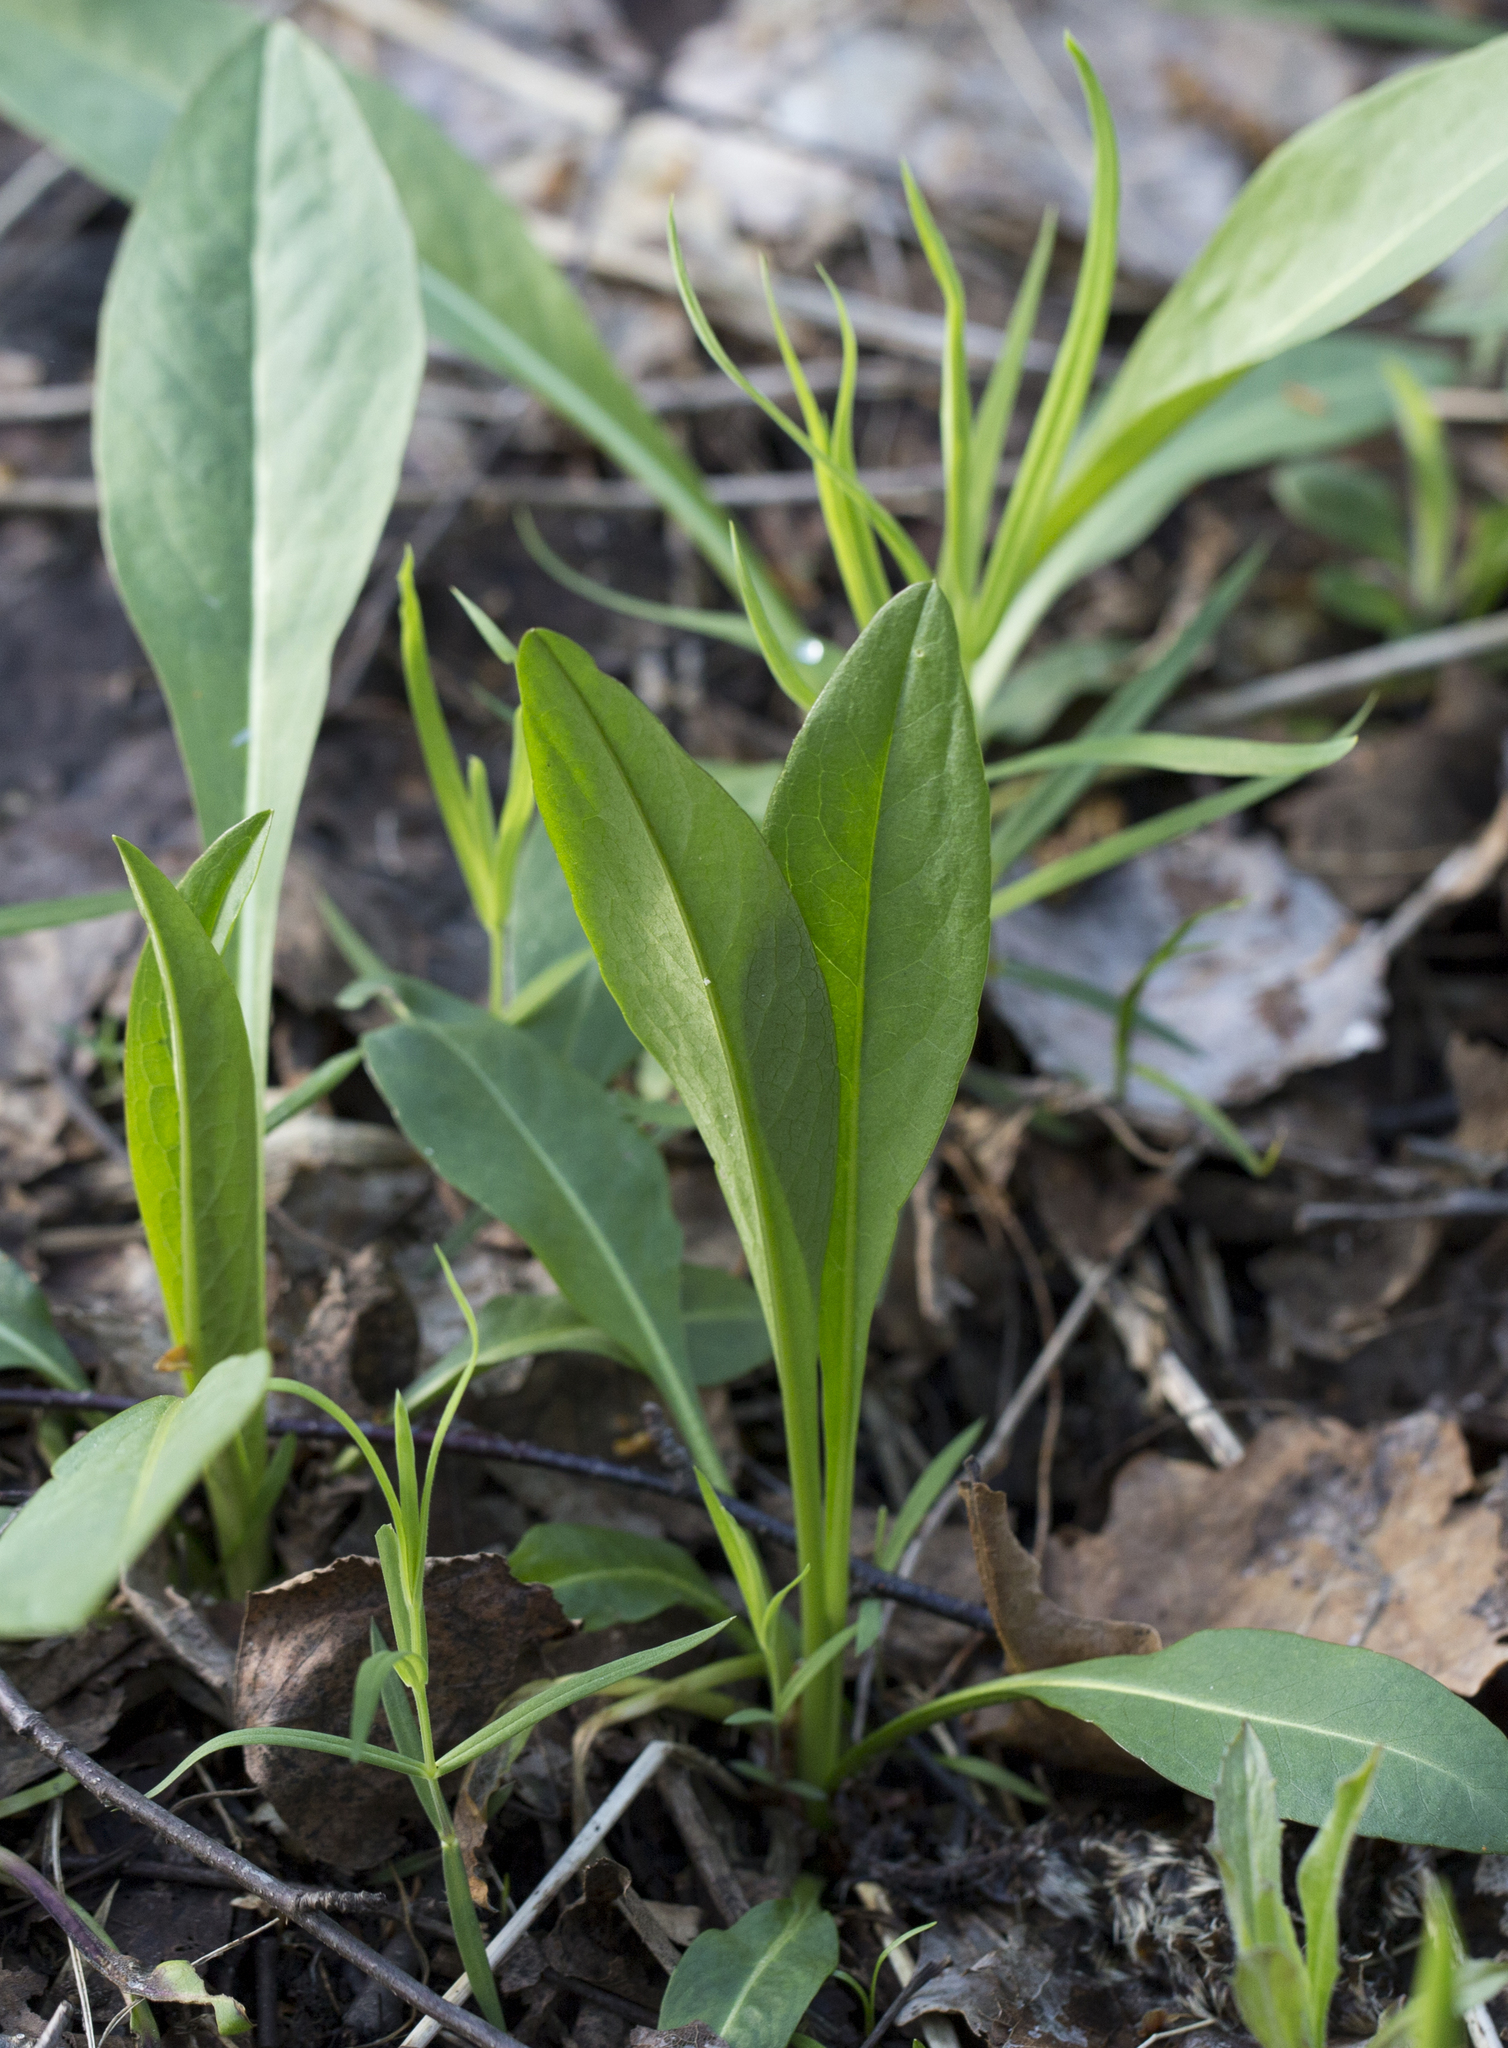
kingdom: Plantae
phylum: Tracheophyta
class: Magnoliopsida
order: Dipsacales
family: Caprifoliaceae
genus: Succisa
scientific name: Succisa pratensis
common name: Devil's-bit
